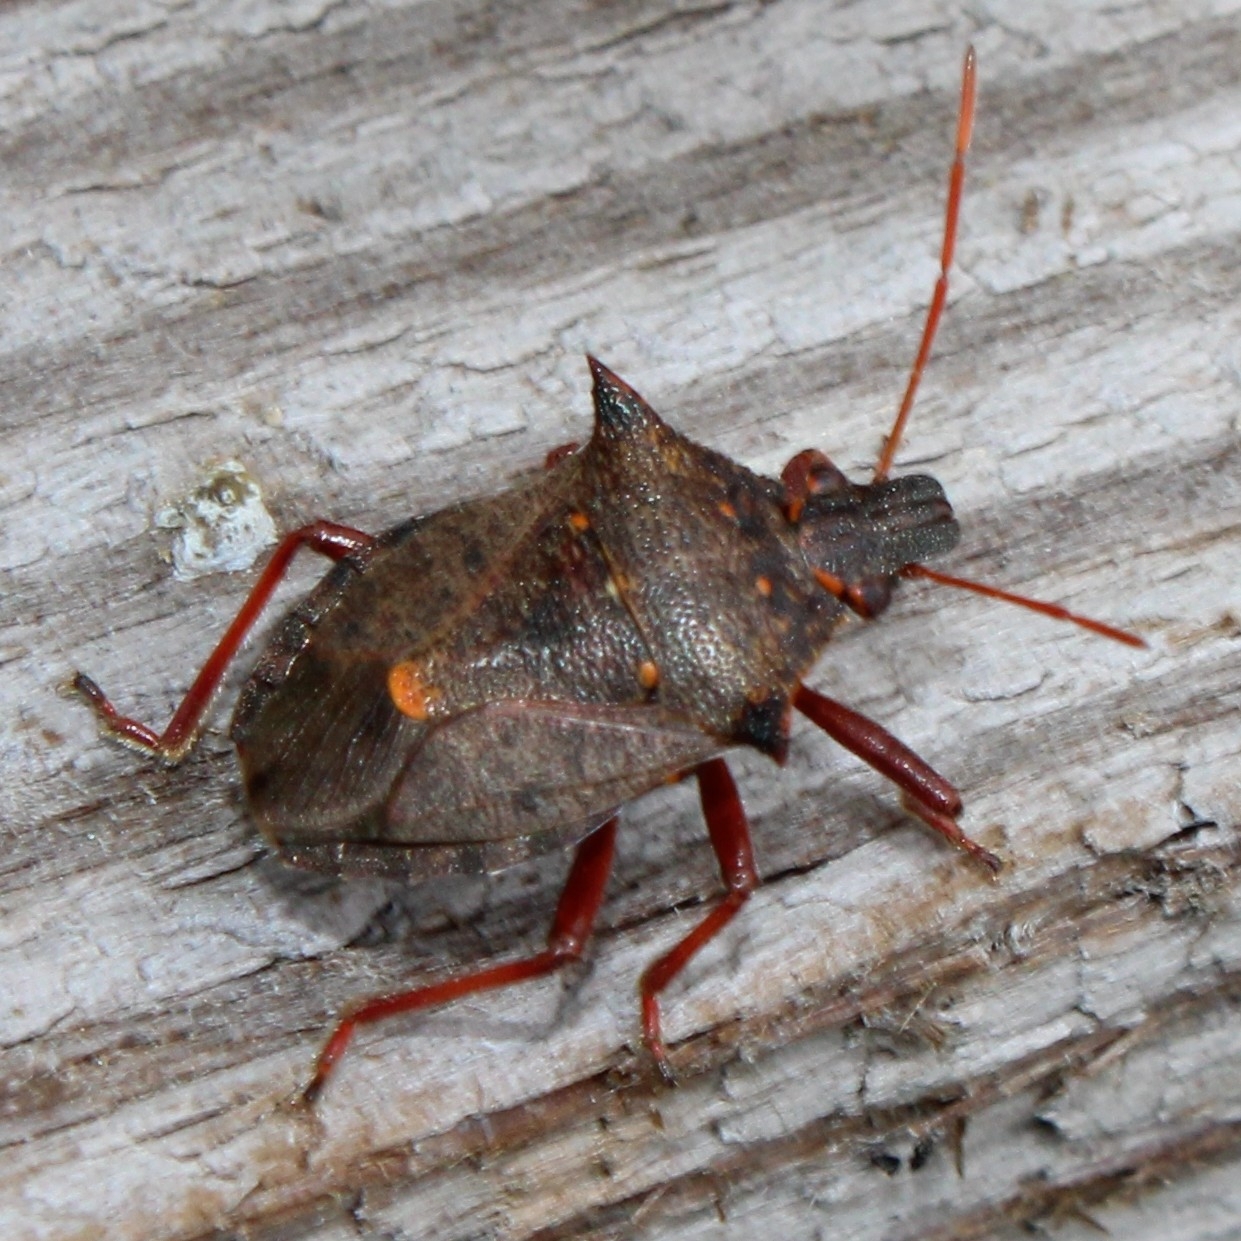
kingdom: Animalia
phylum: Arthropoda
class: Insecta
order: Hemiptera
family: Pentatomidae
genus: Picromerus
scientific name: Picromerus bidens
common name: Spiked shieldbug
